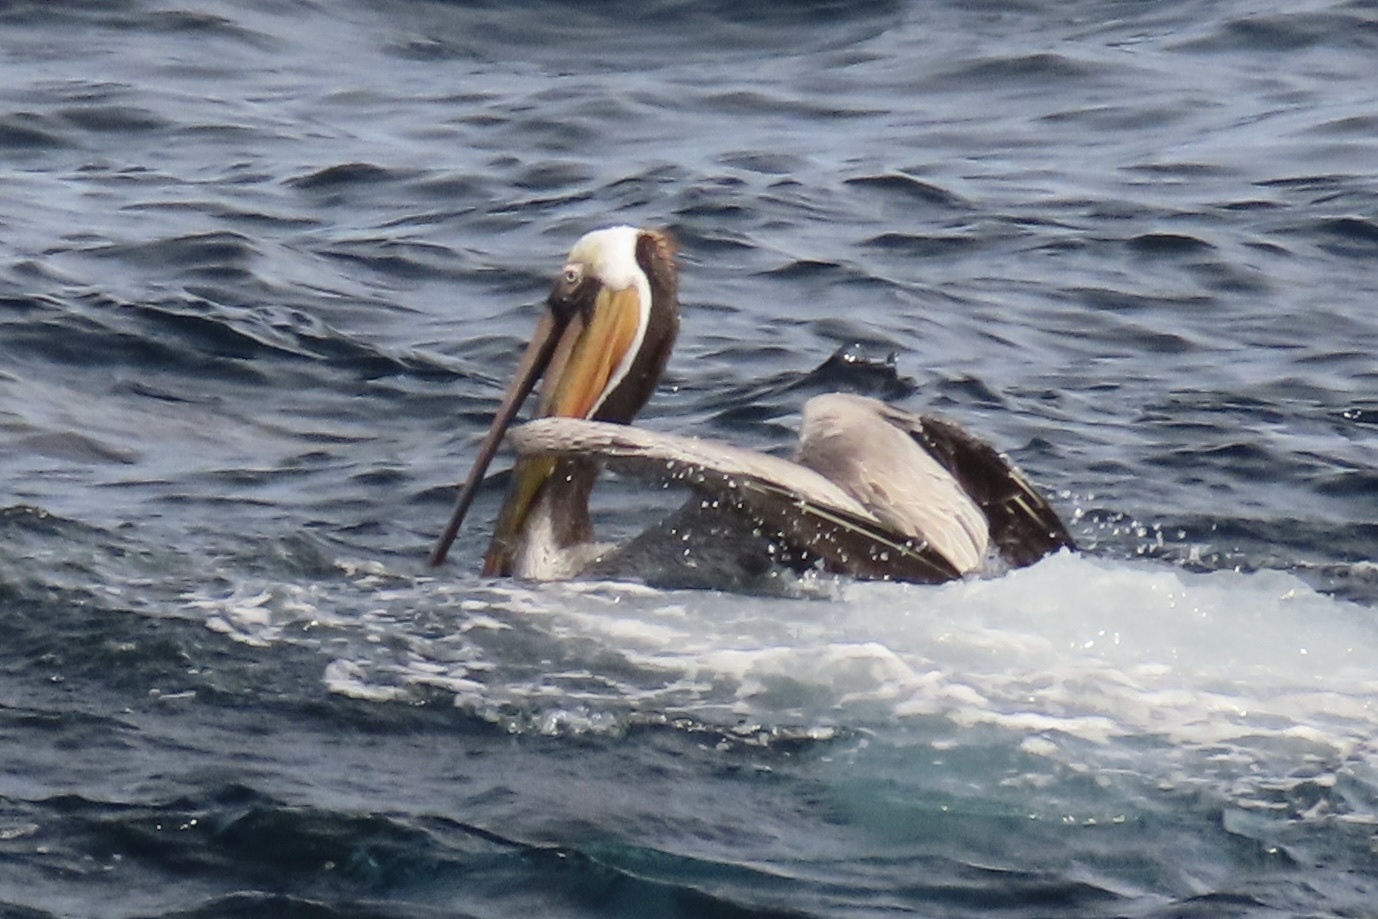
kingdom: Animalia
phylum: Chordata
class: Aves
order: Pelecaniformes
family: Pelecanidae
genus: Pelecanus
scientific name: Pelecanus occidentalis
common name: Brown pelican
